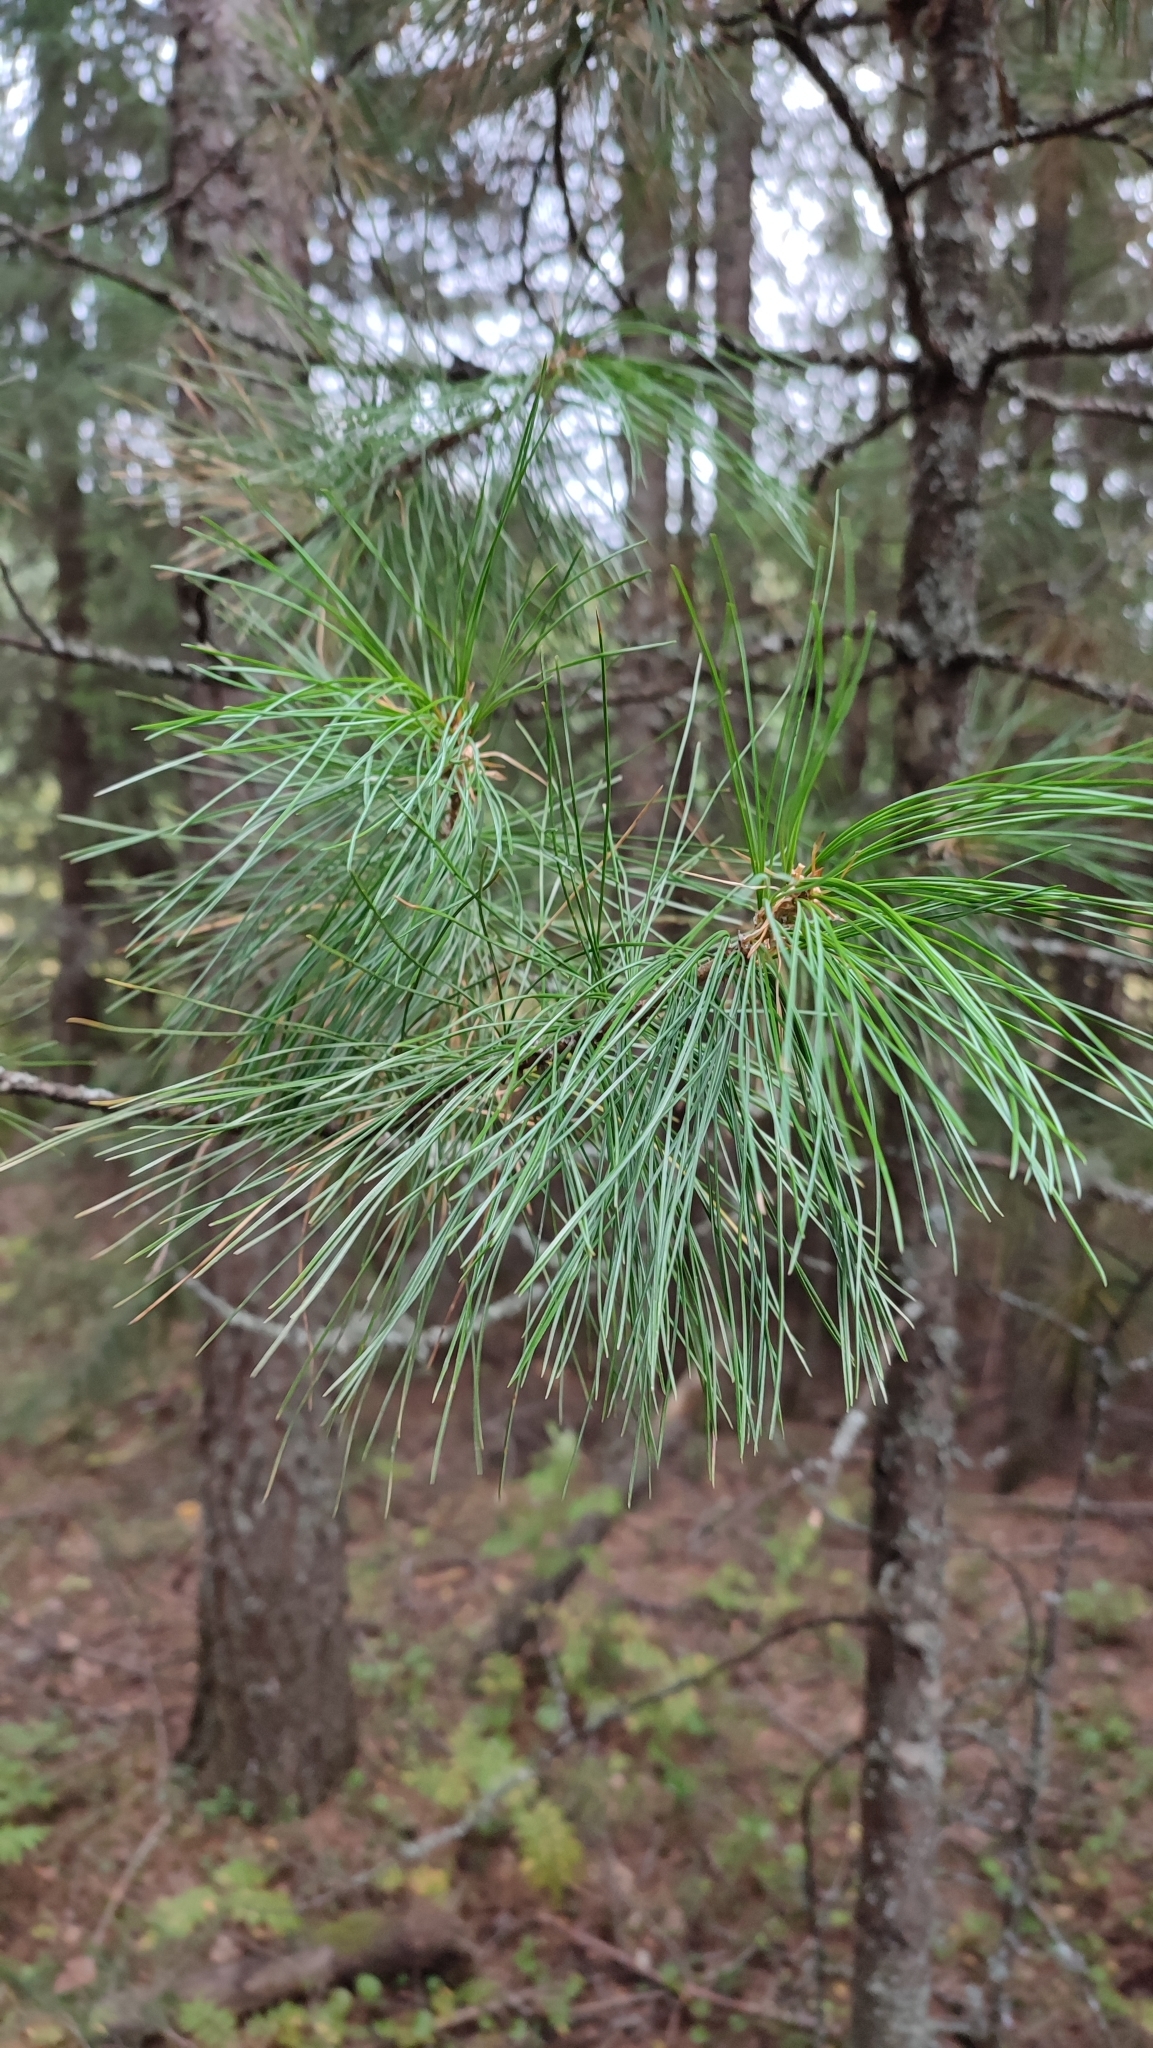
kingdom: Plantae
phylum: Tracheophyta
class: Pinopsida
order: Pinales
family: Pinaceae
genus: Pinus
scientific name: Pinus sibirica
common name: Siberian pine
